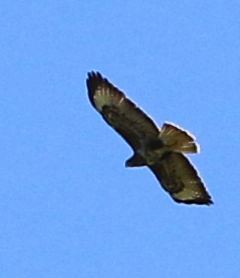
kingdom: Animalia
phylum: Chordata
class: Aves
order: Accipitriformes
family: Accipitridae
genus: Buteo
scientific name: Buteo buteo
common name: Common buzzard
